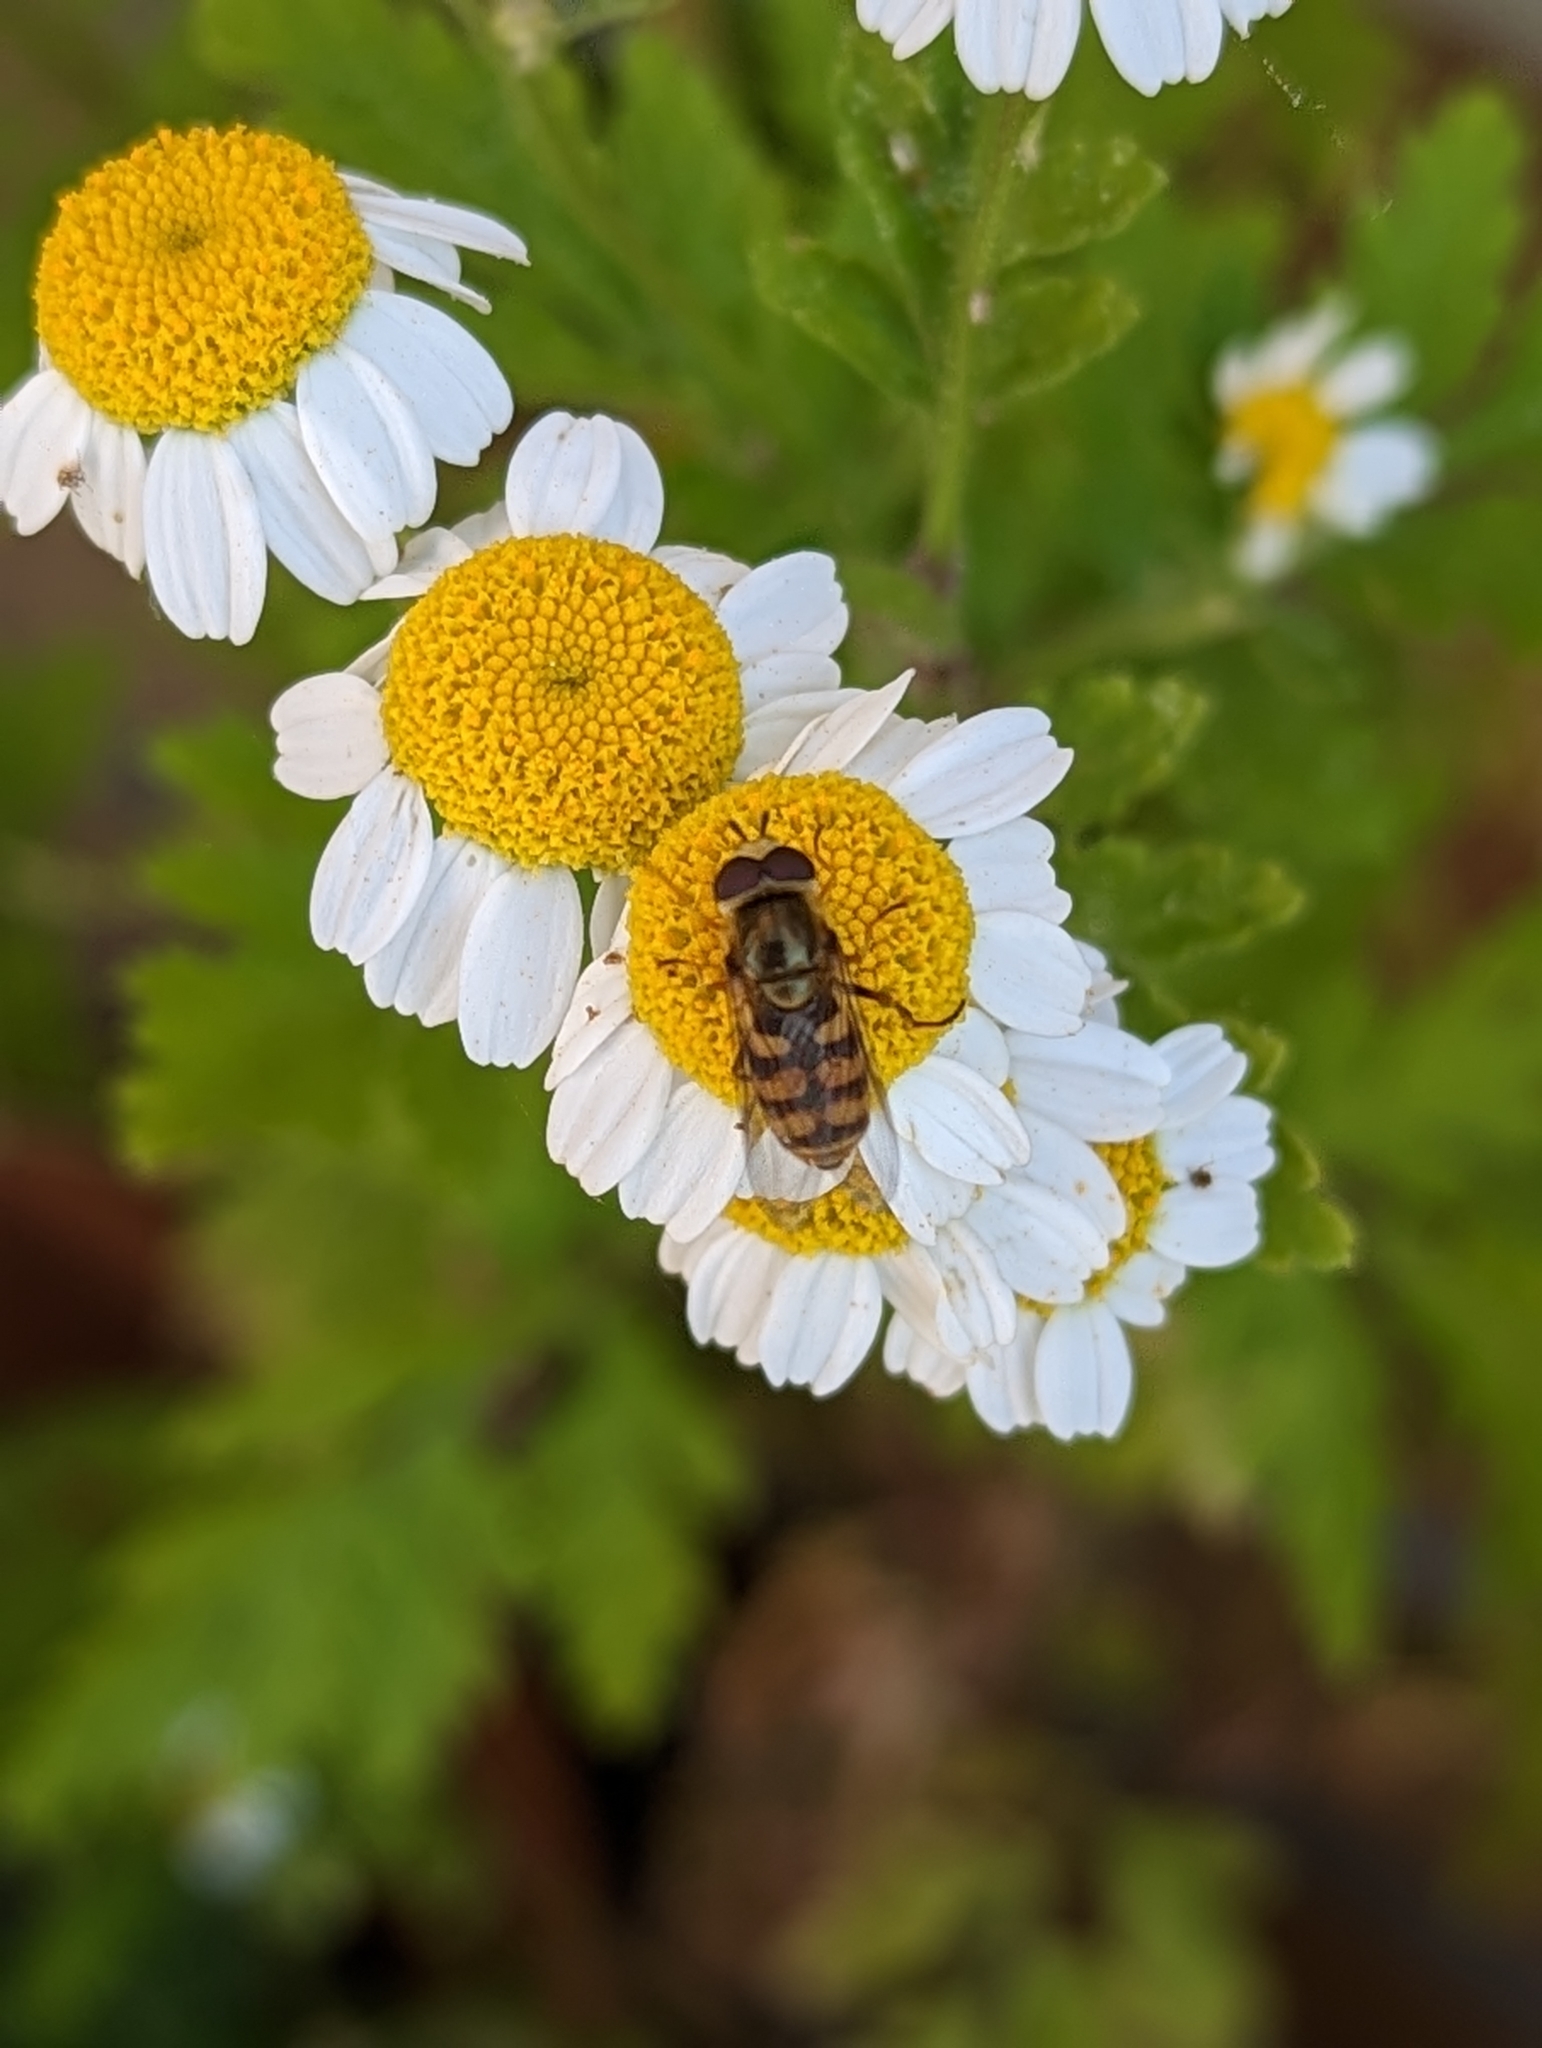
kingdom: Animalia
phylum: Arthropoda
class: Insecta
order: Diptera
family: Syrphidae
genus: Eupeodes
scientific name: Eupeodes
